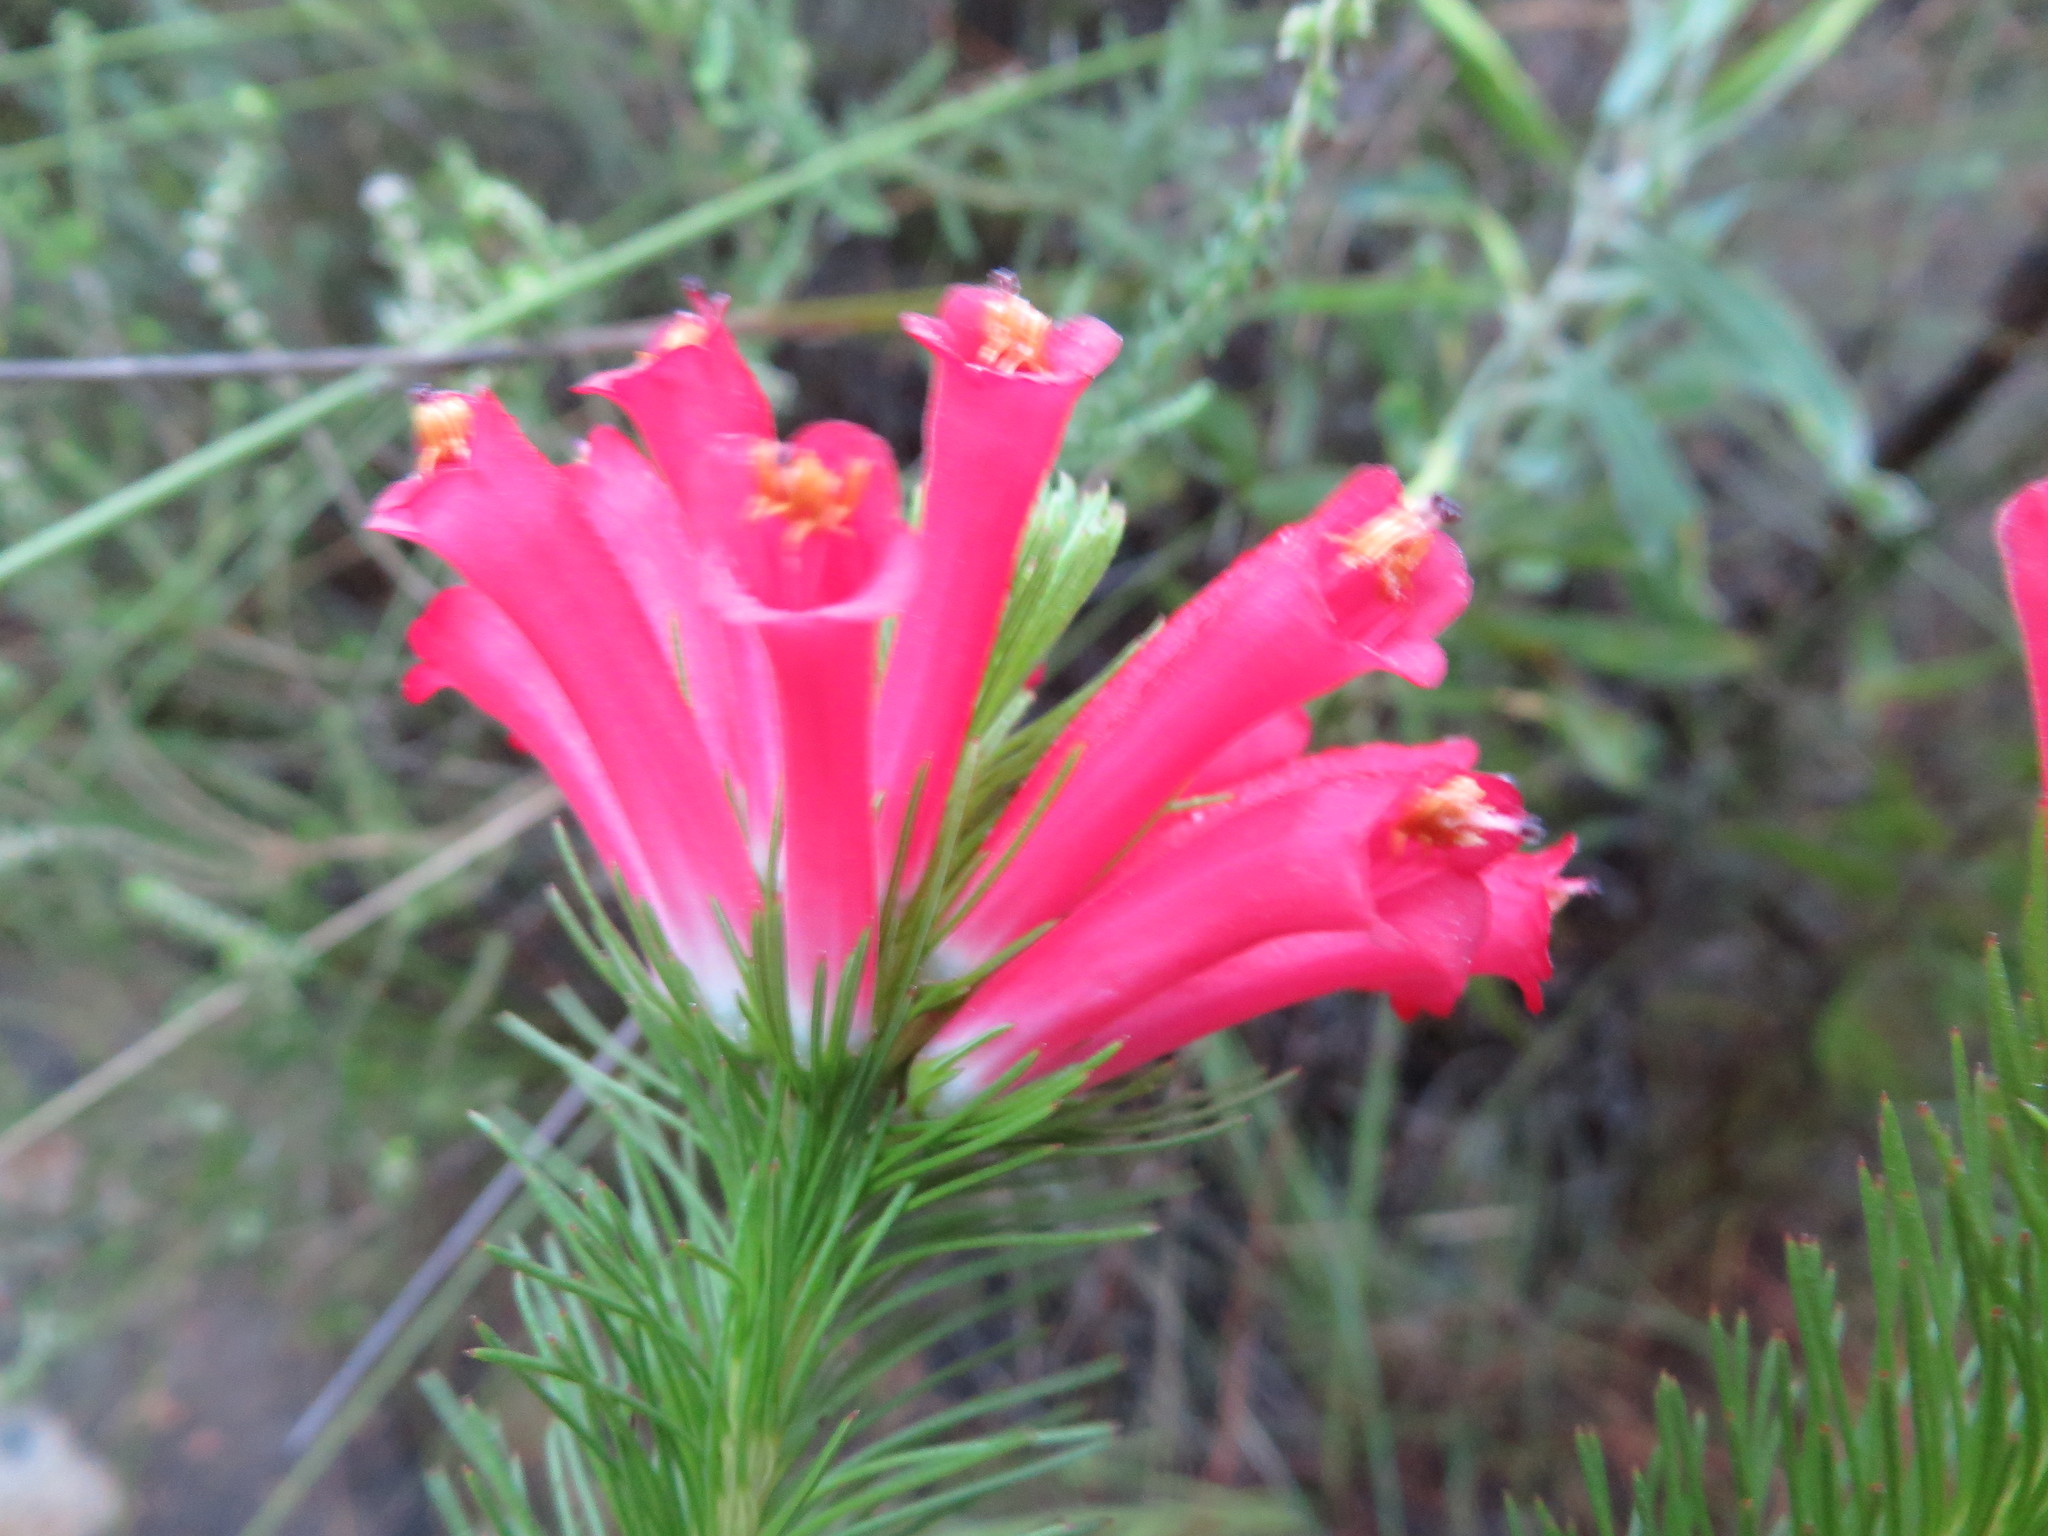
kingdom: Plantae
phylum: Tracheophyta
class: Magnoliopsida
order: Ericales
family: Ericaceae
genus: Erica
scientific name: Erica vestita
